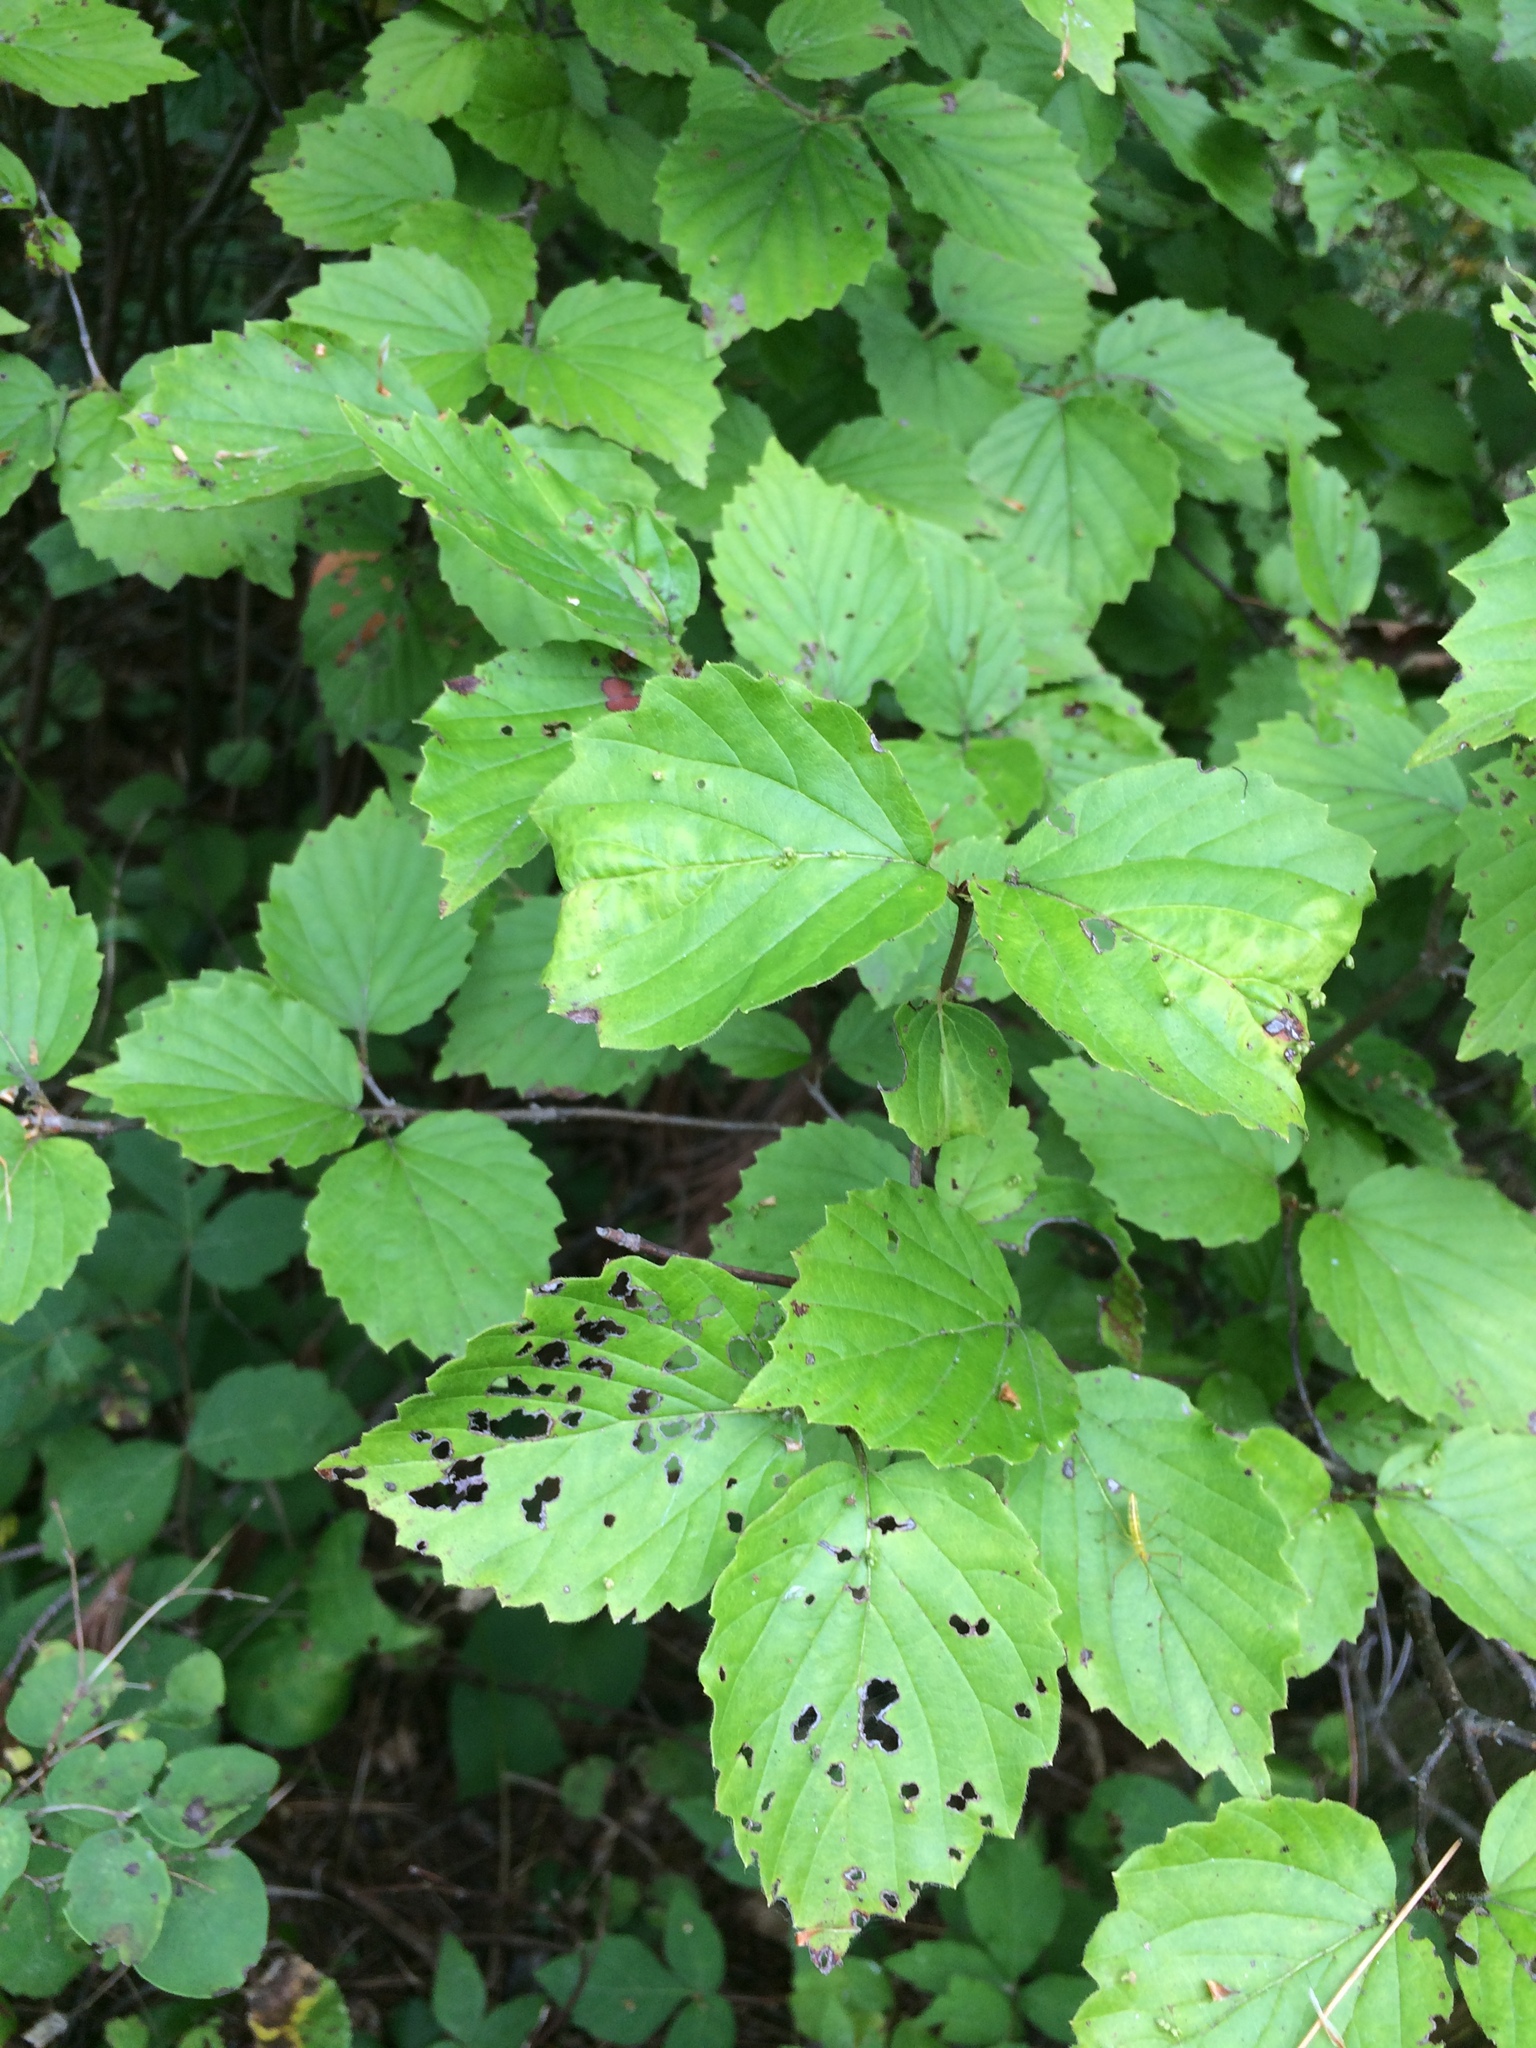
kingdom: Plantae
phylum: Tracheophyta
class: Magnoliopsida
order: Dipsacales
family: Viburnaceae
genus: Viburnum
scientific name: Viburnum rafinesqueanum
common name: Downy arrow-wood
